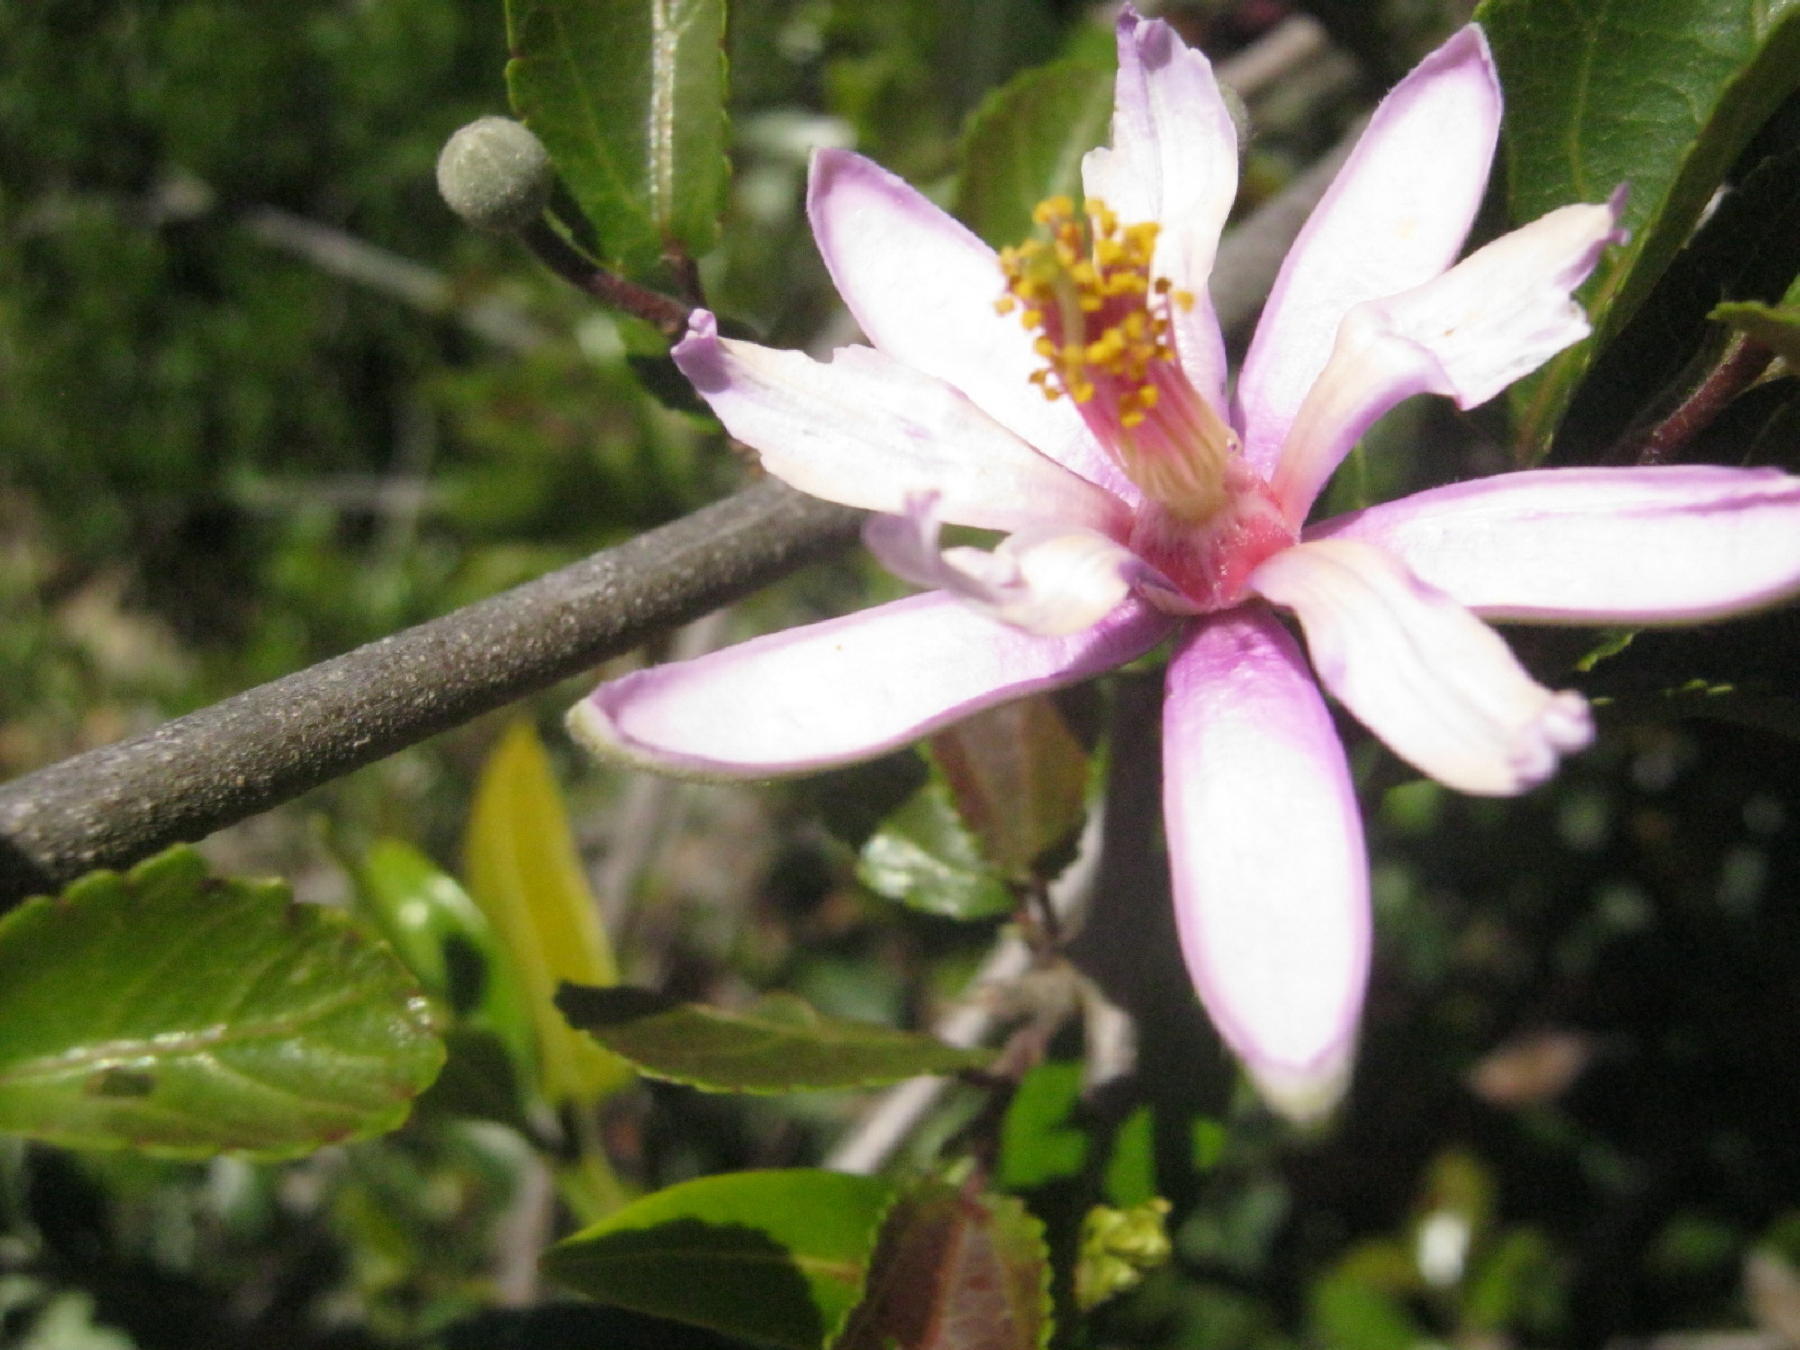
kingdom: Plantae
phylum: Tracheophyta
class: Magnoliopsida
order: Malvales
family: Malvaceae
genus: Grewia
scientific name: Grewia occidentalis
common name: Crossberry
